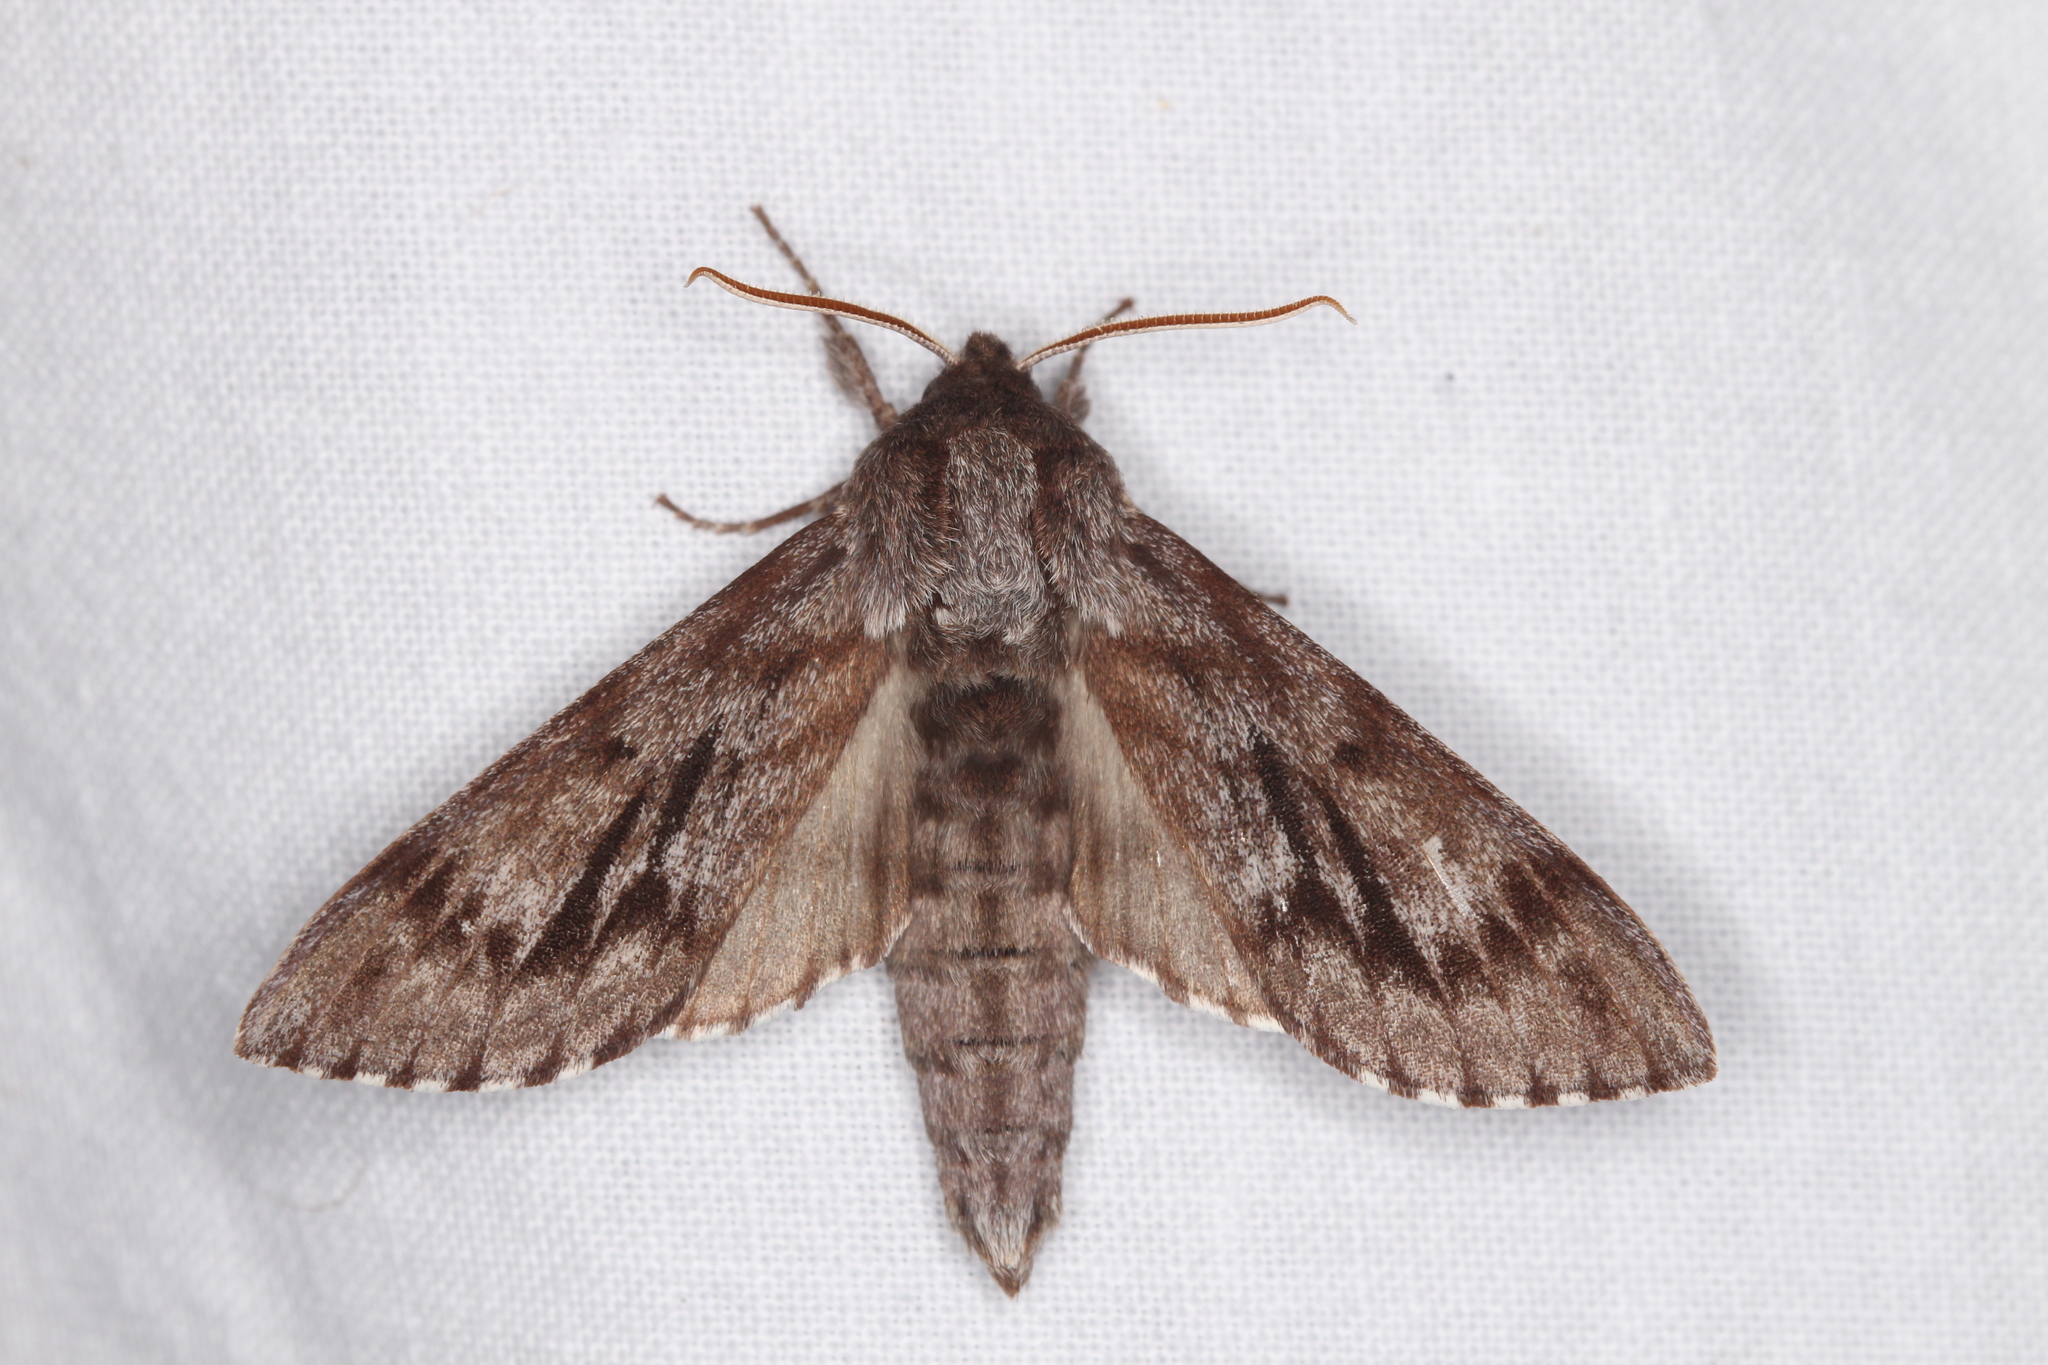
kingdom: Animalia
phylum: Arthropoda
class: Insecta
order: Lepidoptera
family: Sphingidae
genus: Lapara
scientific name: Lapara bombycoides
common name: Northern pine sphinx
